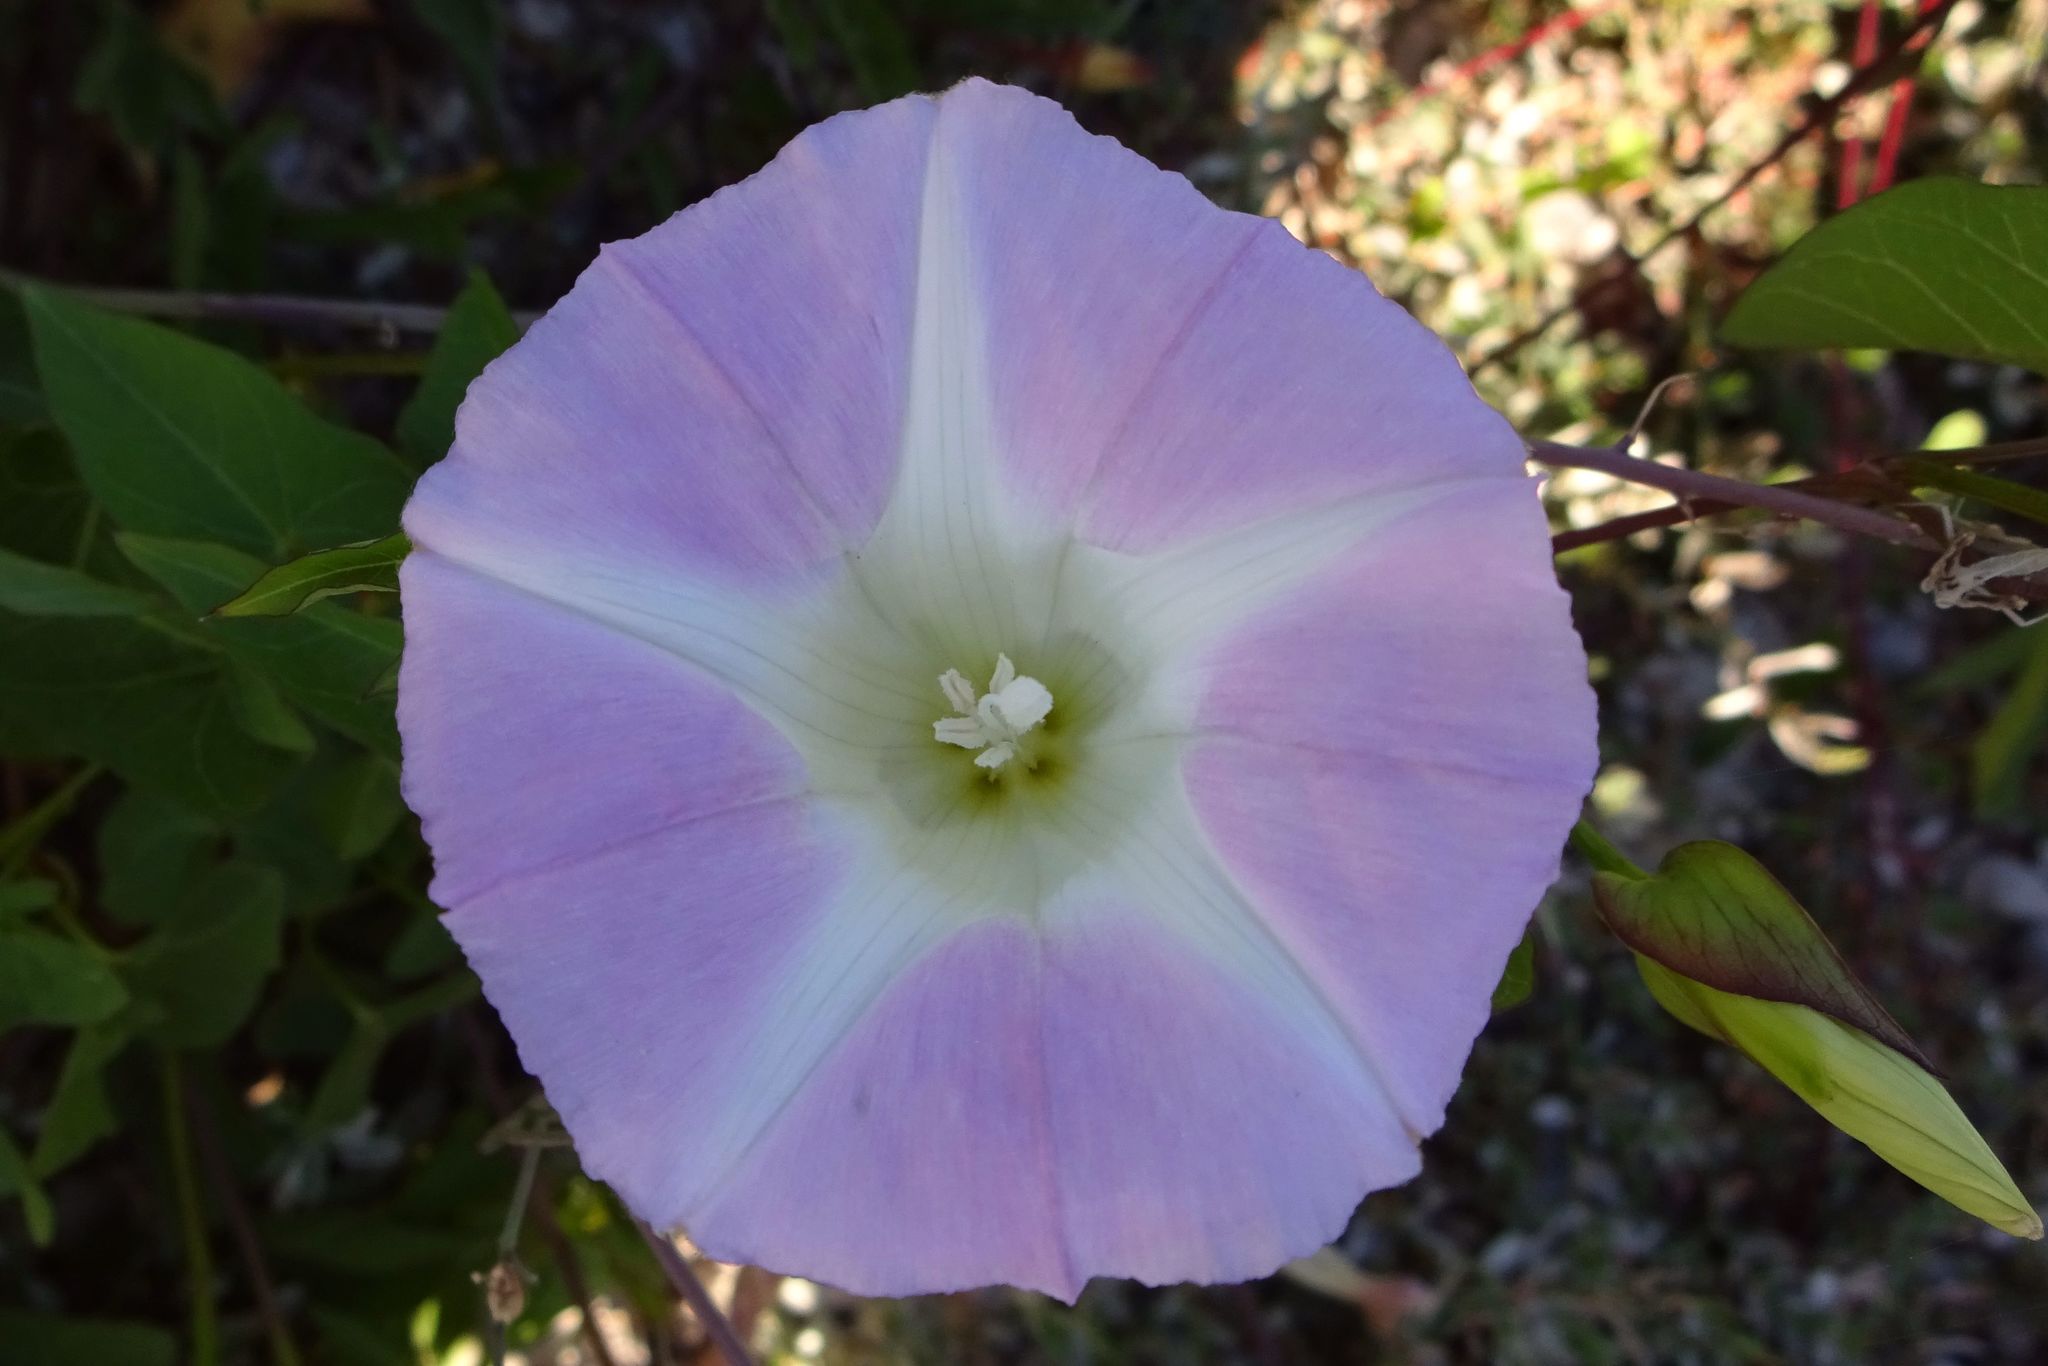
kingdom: Plantae
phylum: Tracheophyta
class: Magnoliopsida
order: Solanales
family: Convolvulaceae
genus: Calystegia
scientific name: Calystegia sepium
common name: Hedge bindweed
